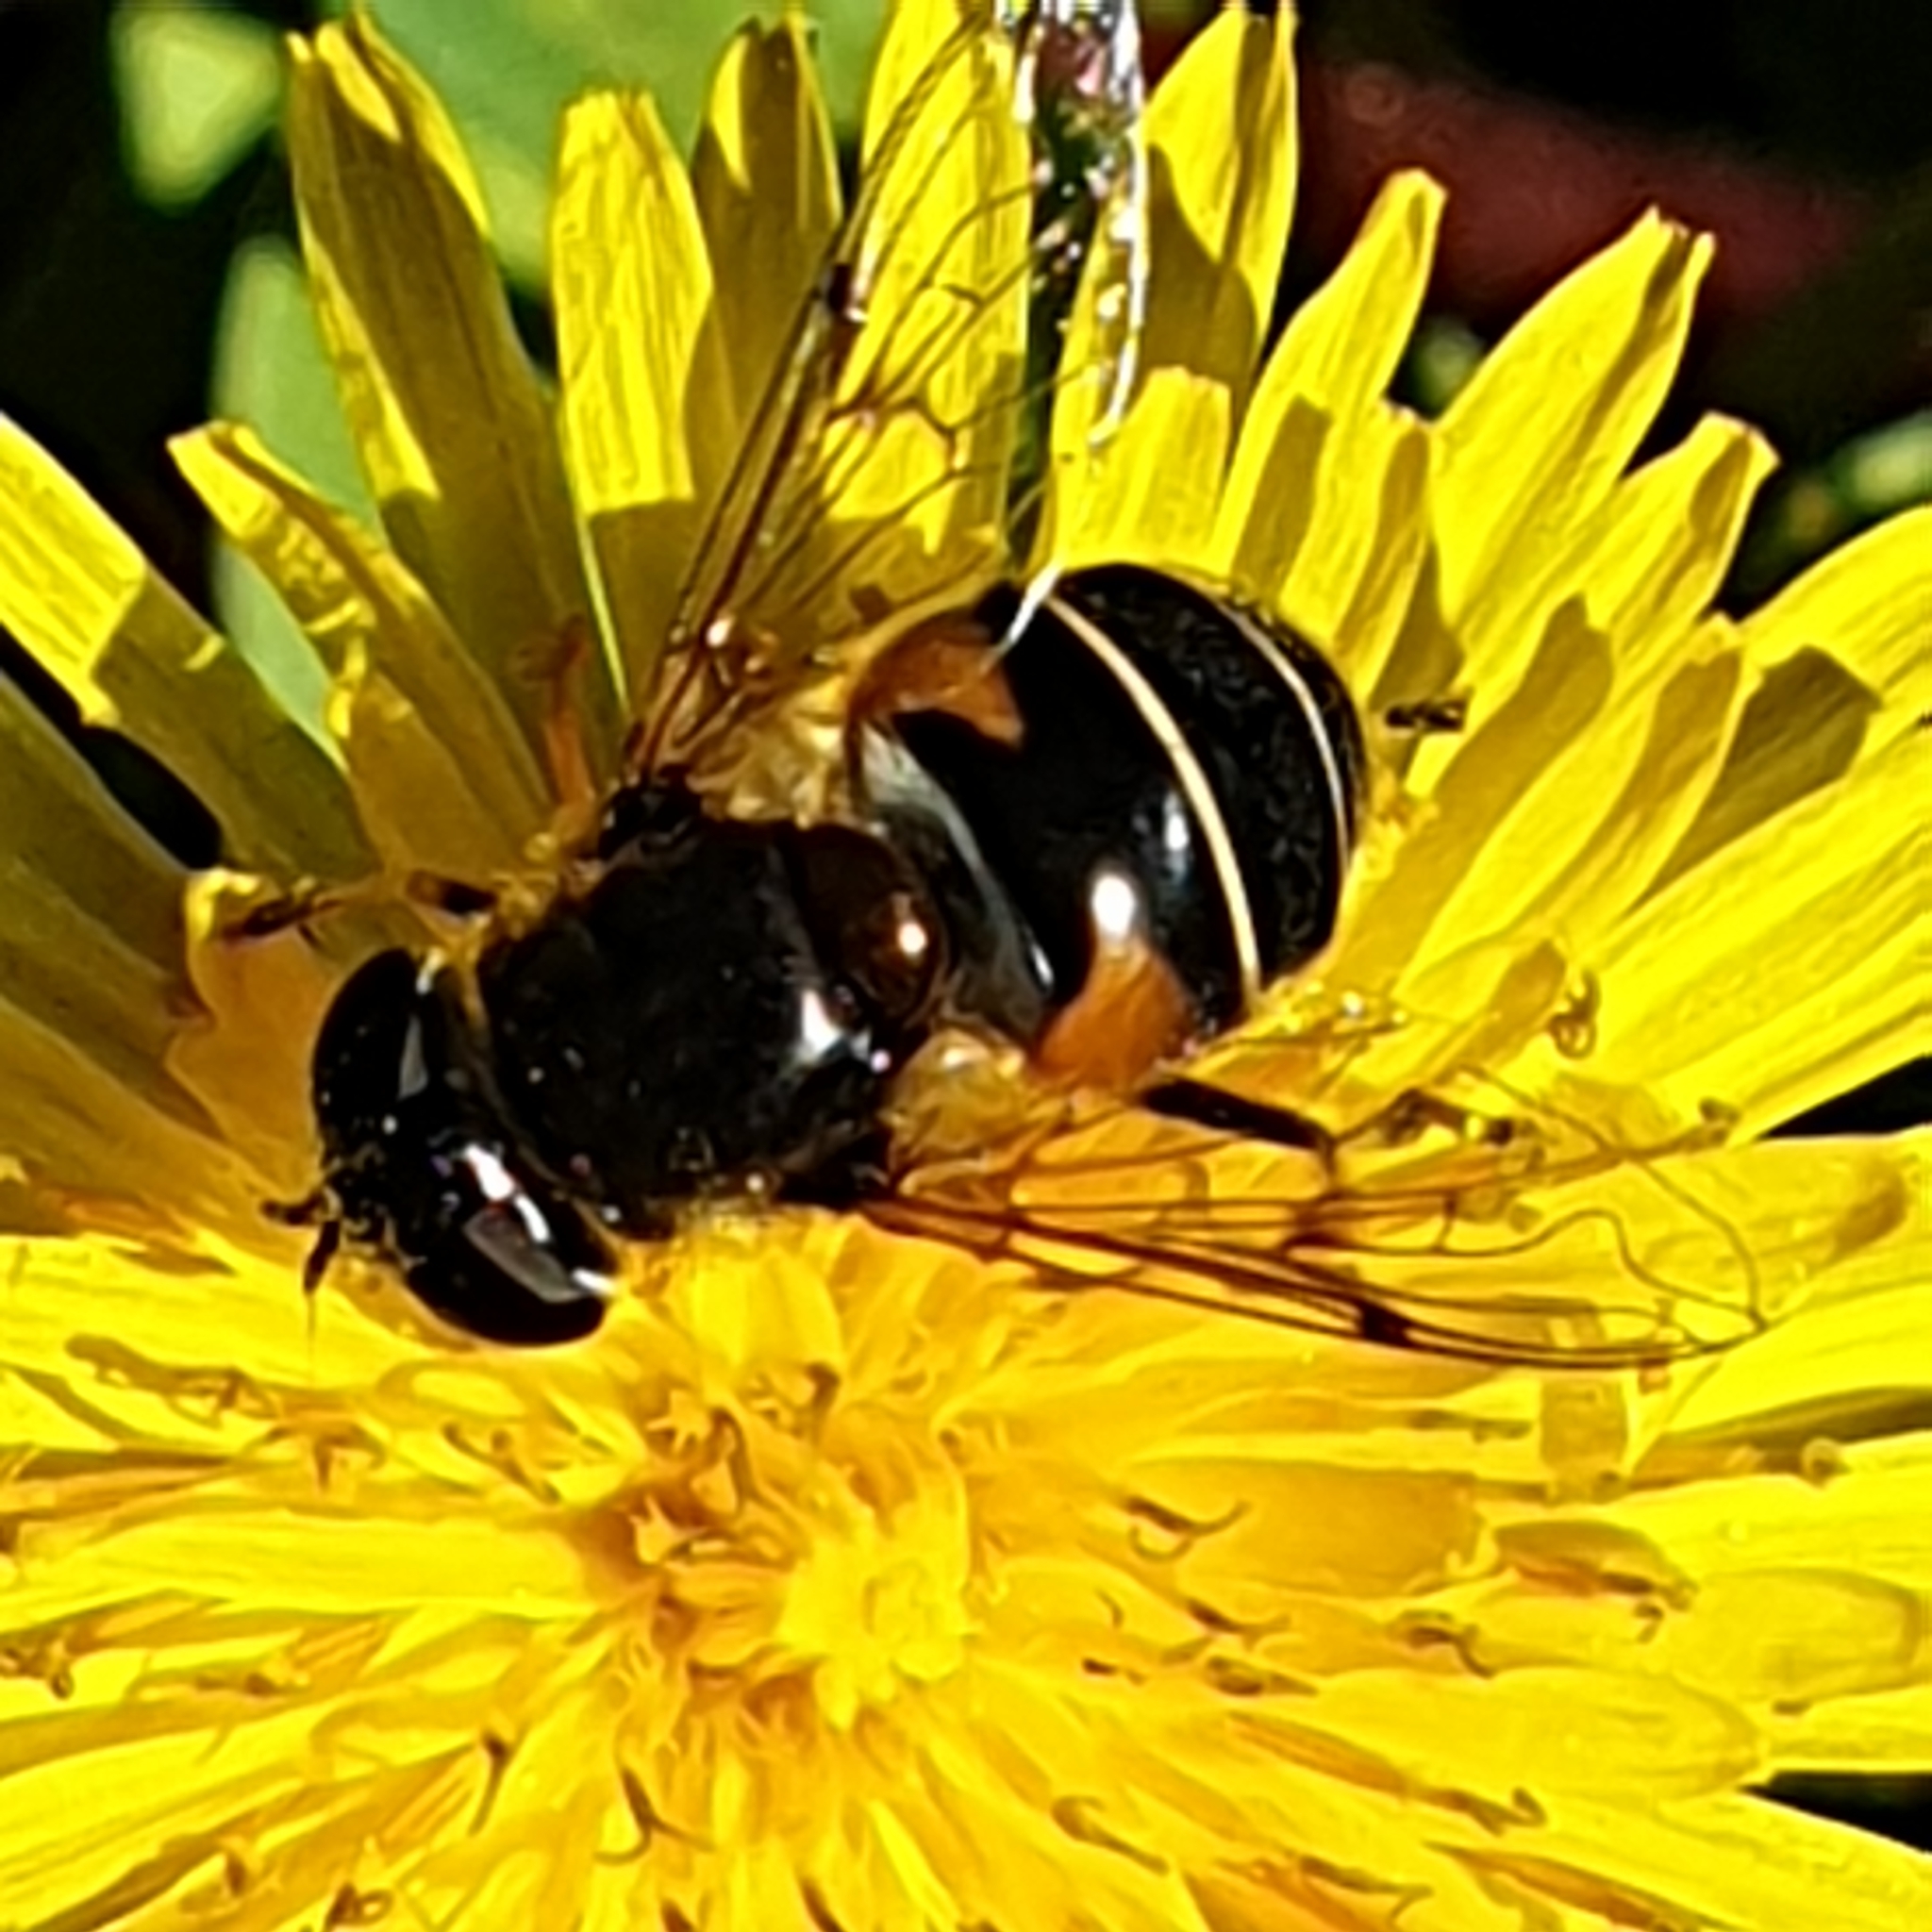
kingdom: Animalia
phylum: Arthropoda
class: Insecta
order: Diptera
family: Syrphidae
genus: Eristalis
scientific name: Eristalis obscura
